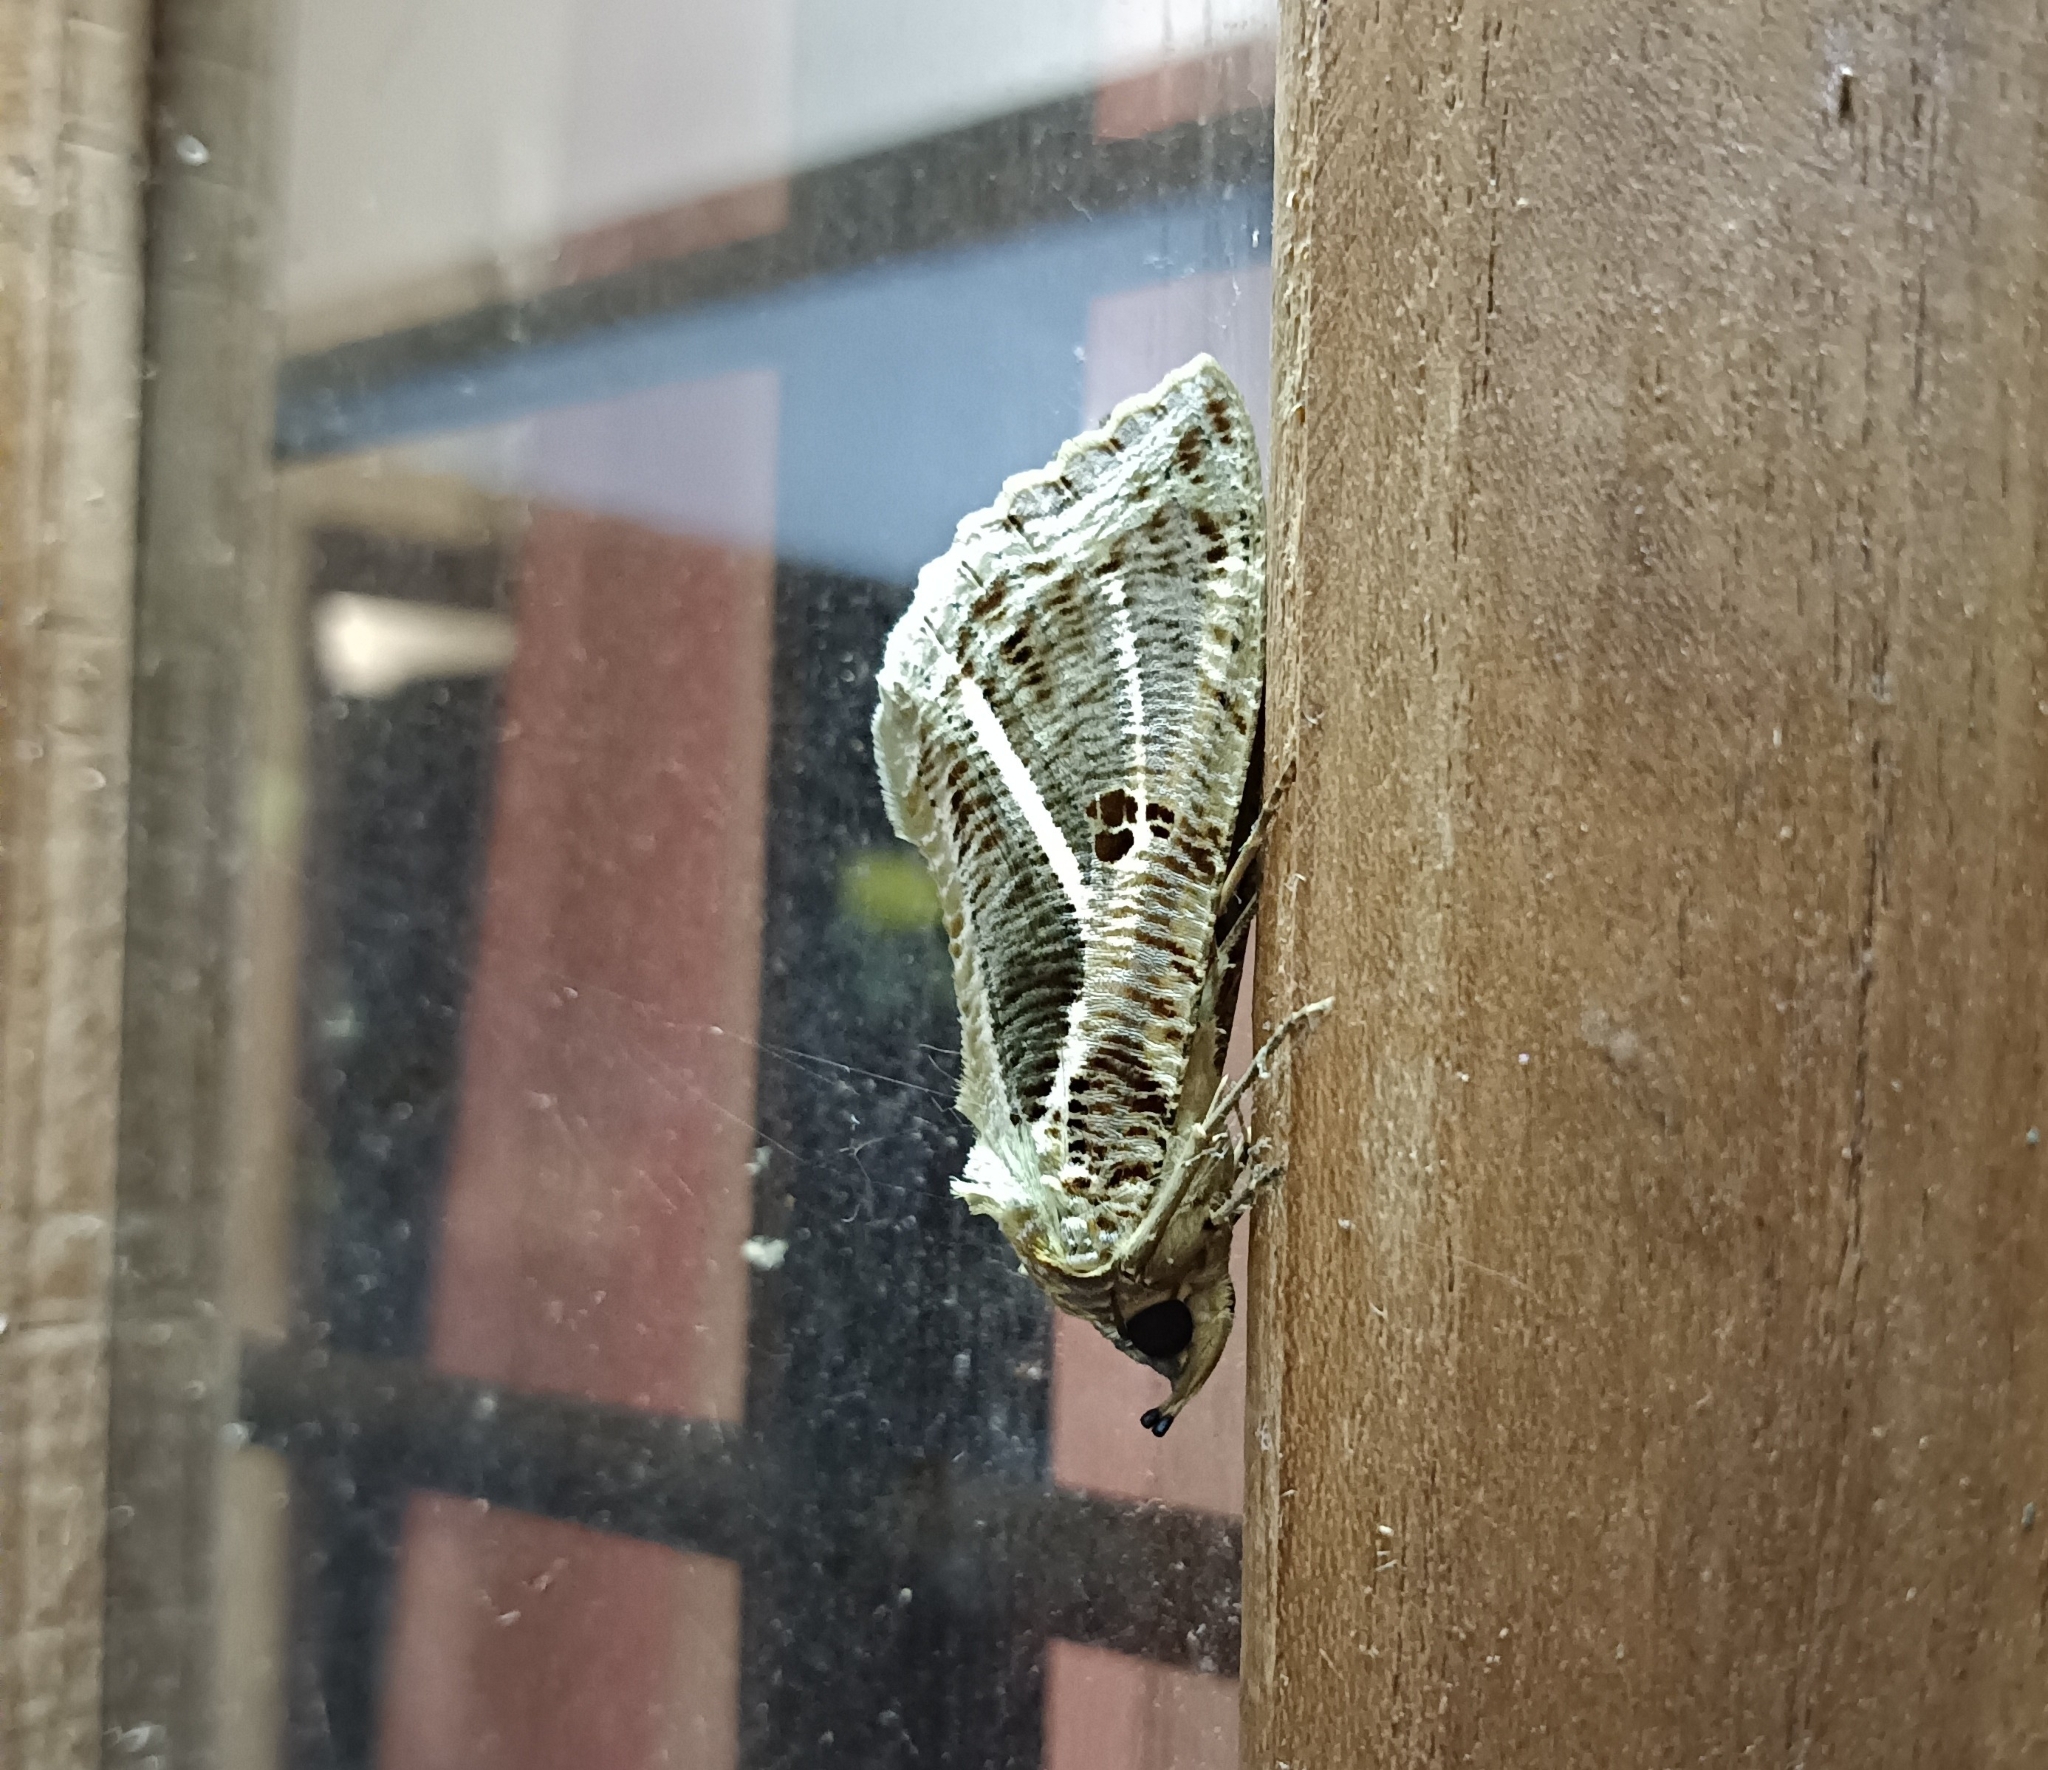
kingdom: Animalia
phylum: Arthropoda
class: Insecta
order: Lepidoptera
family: Erebidae
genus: Eudocima
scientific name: Eudocima materna
